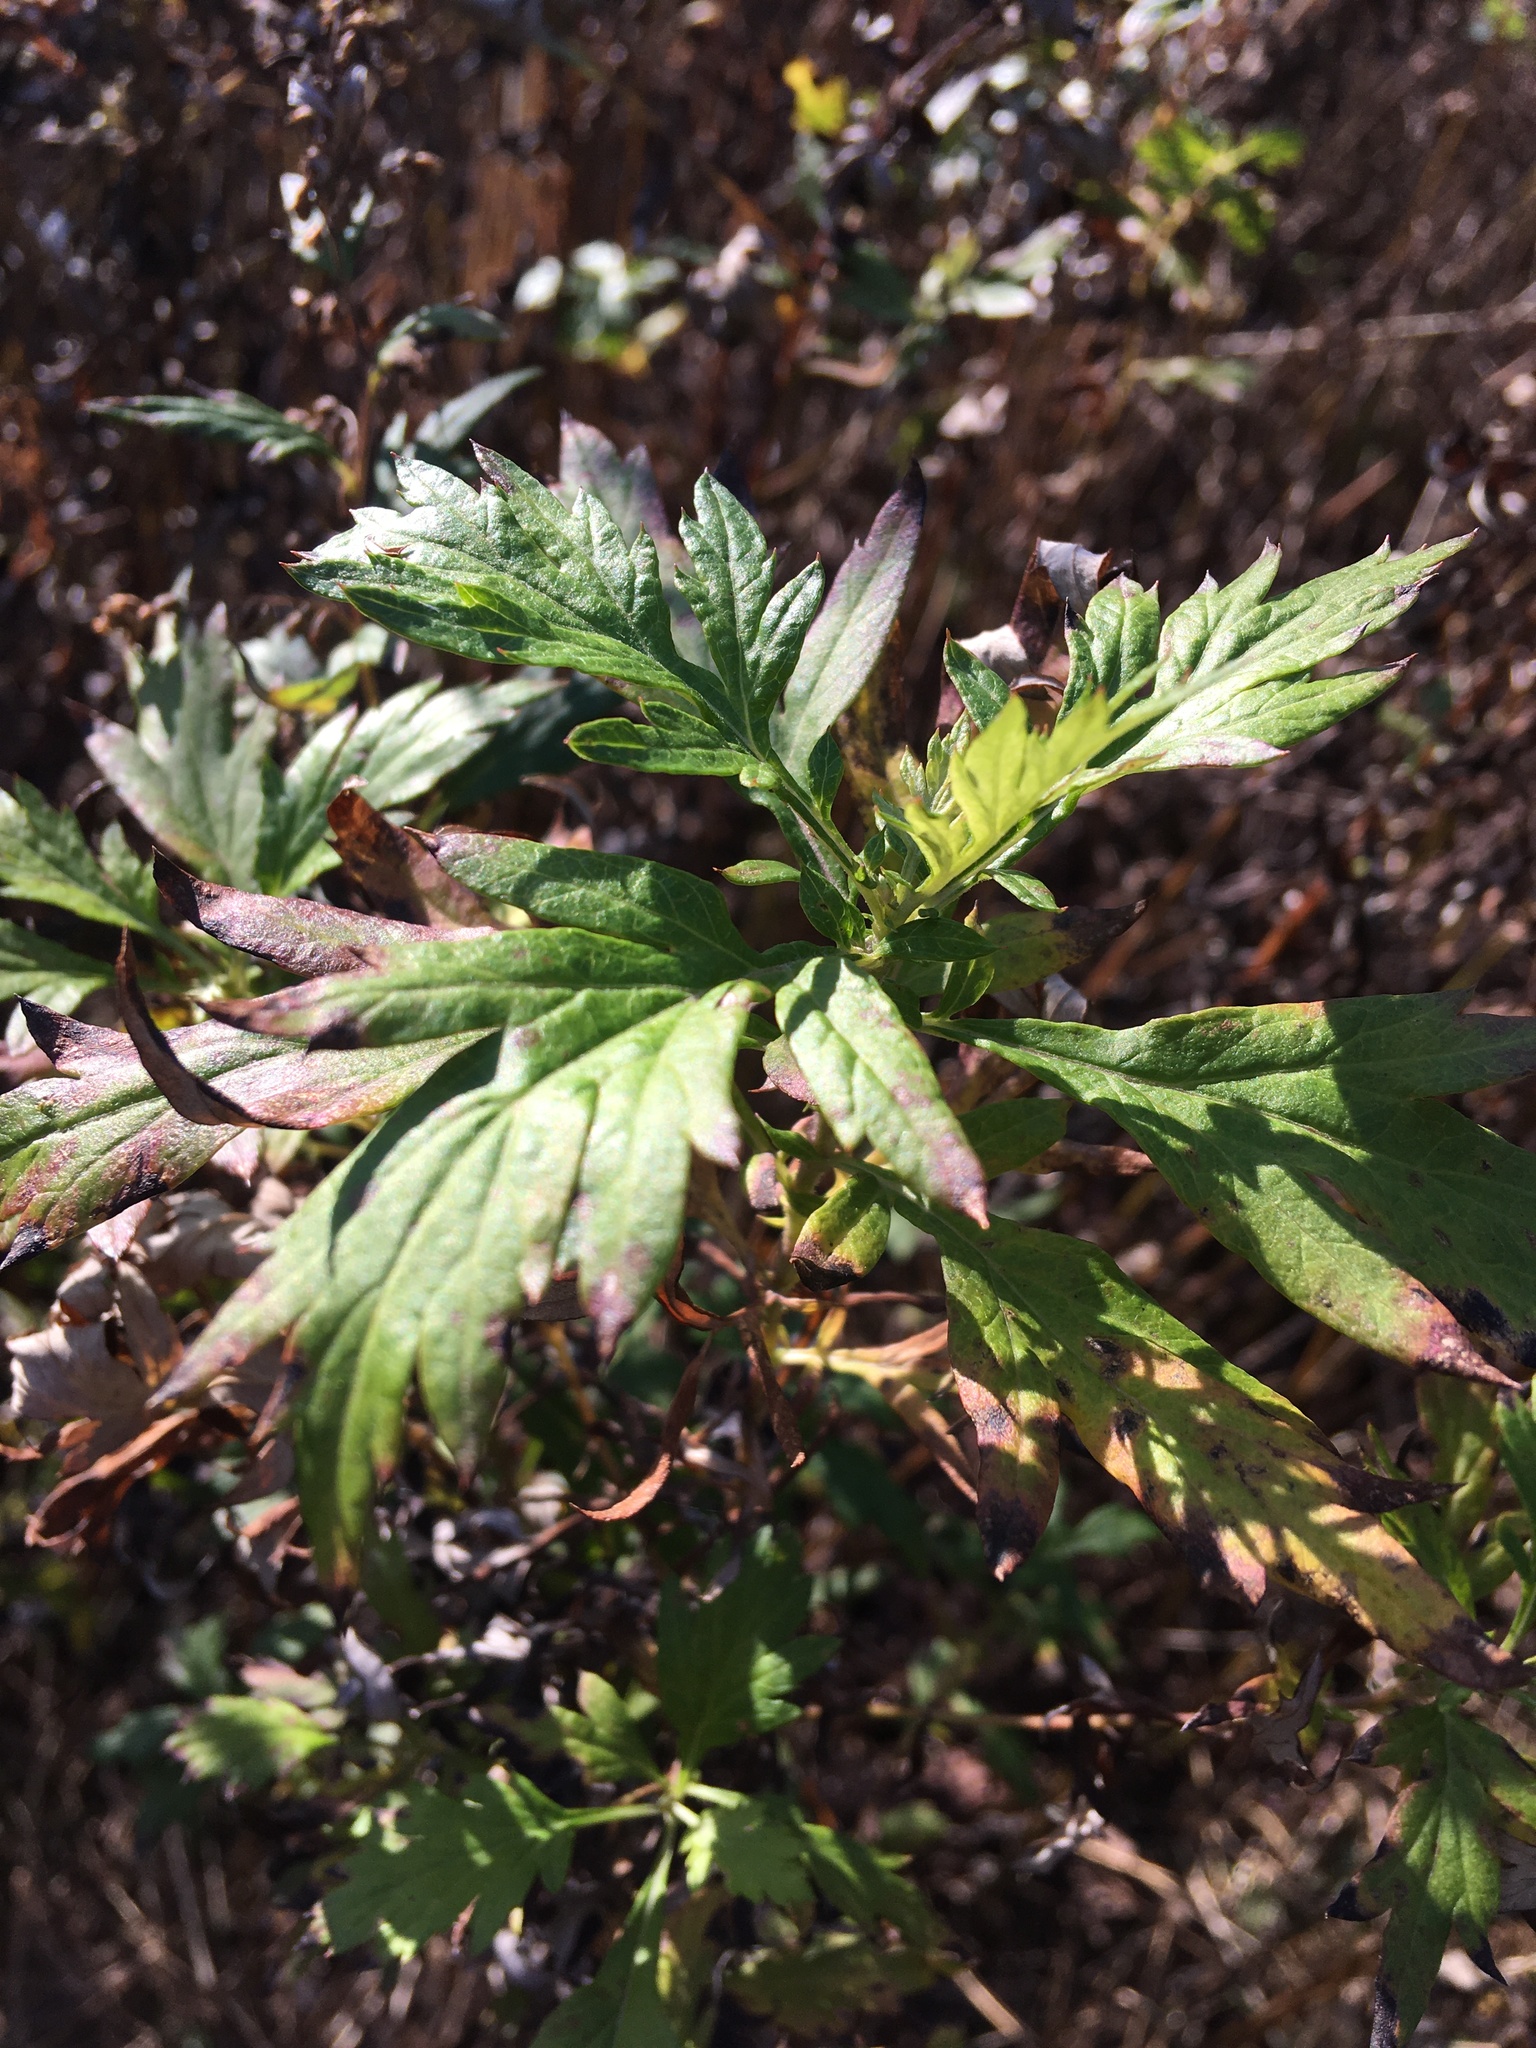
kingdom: Plantae
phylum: Tracheophyta
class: Magnoliopsida
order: Asterales
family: Asteraceae
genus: Artemisia
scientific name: Artemisia vulgaris
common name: Mugwort
